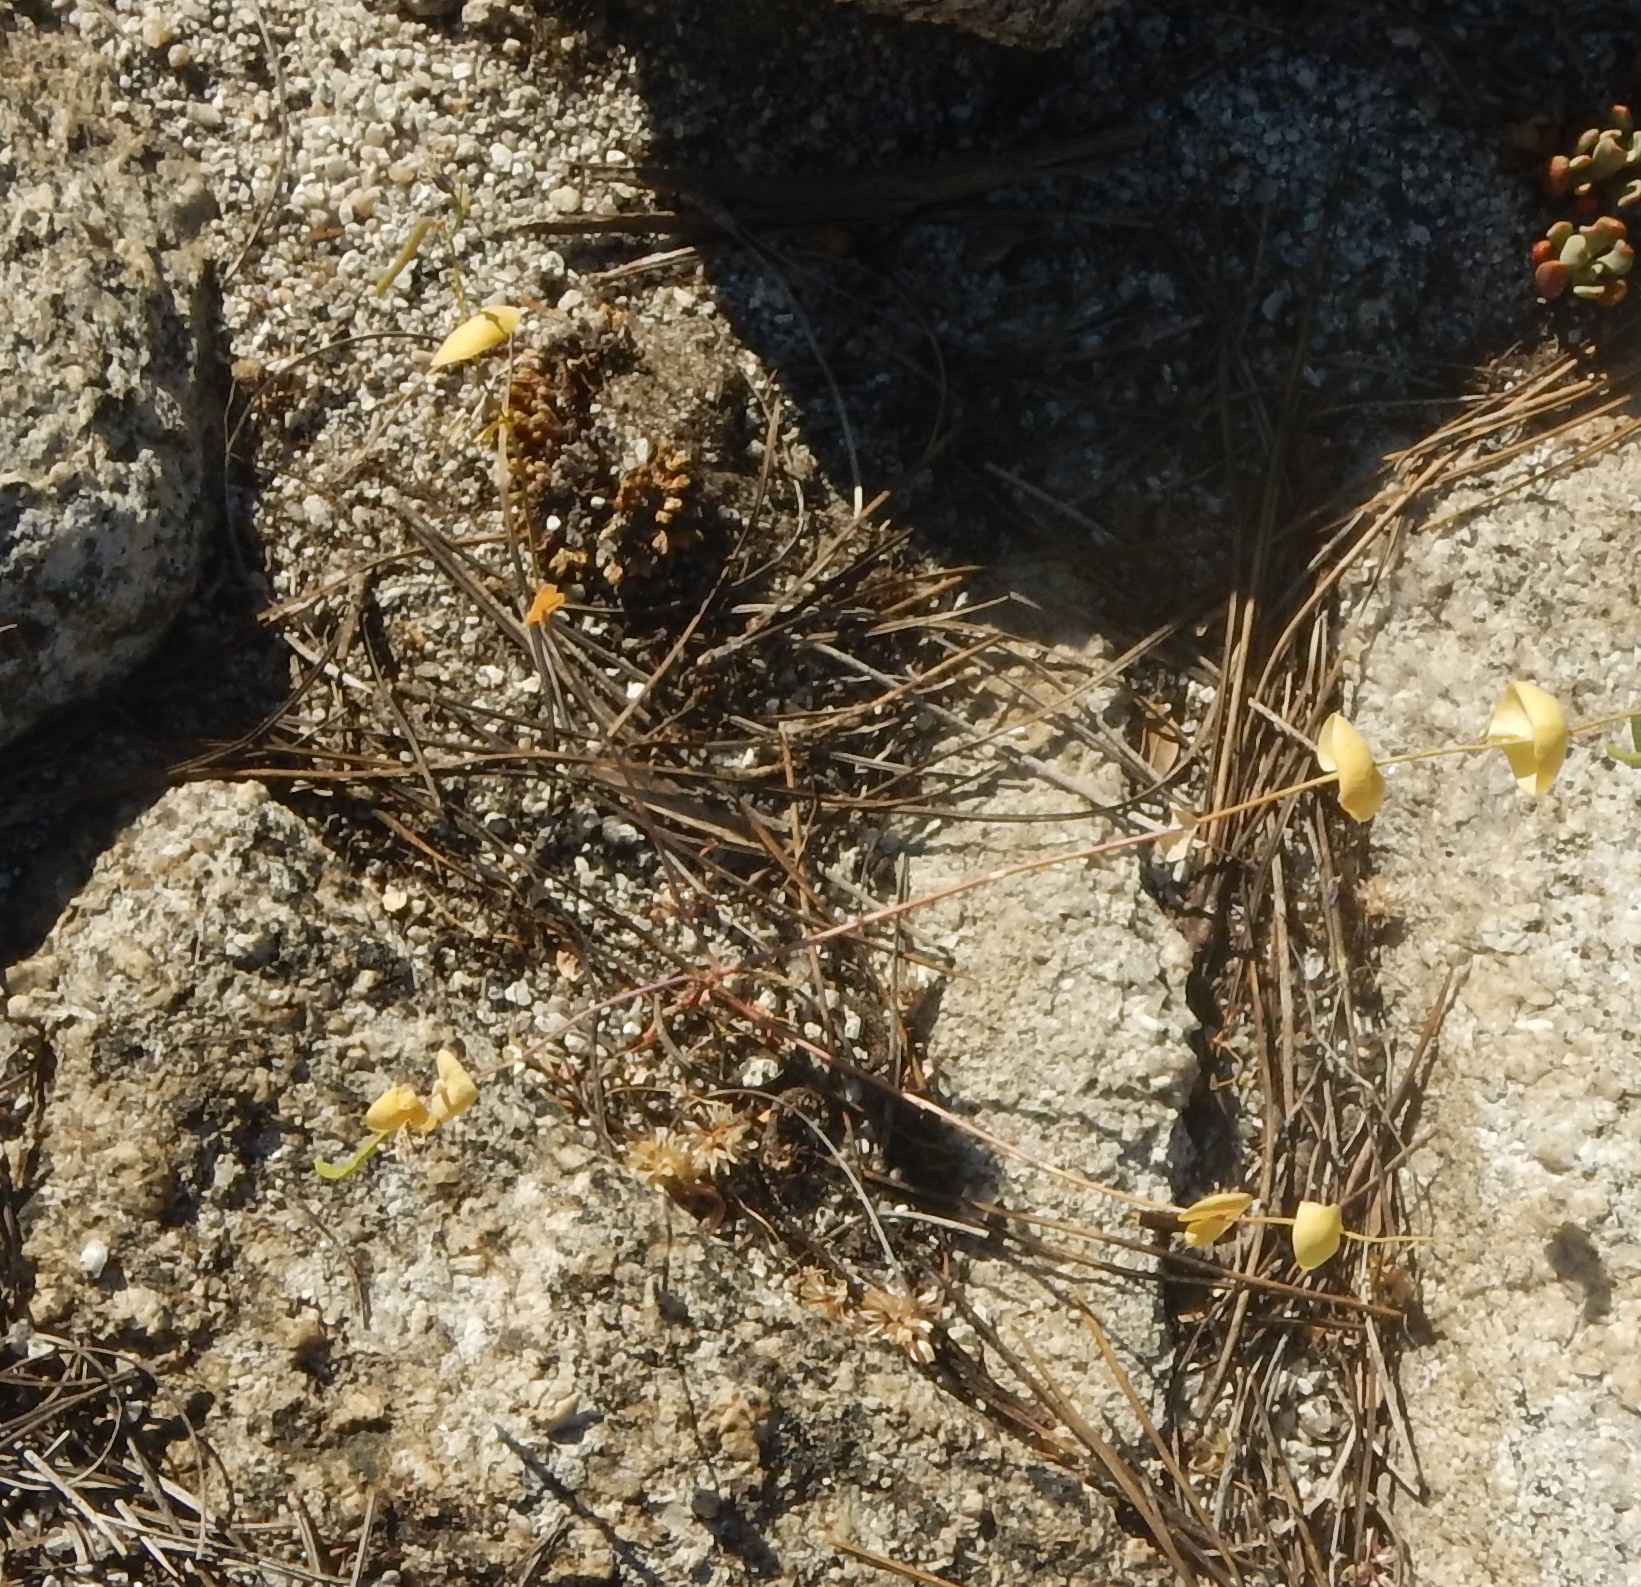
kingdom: Plantae
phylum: Tracheophyta
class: Magnoliopsida
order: Brassicales
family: Brassicaceae
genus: Streptanthus
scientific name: Streptanthus tortuosus
